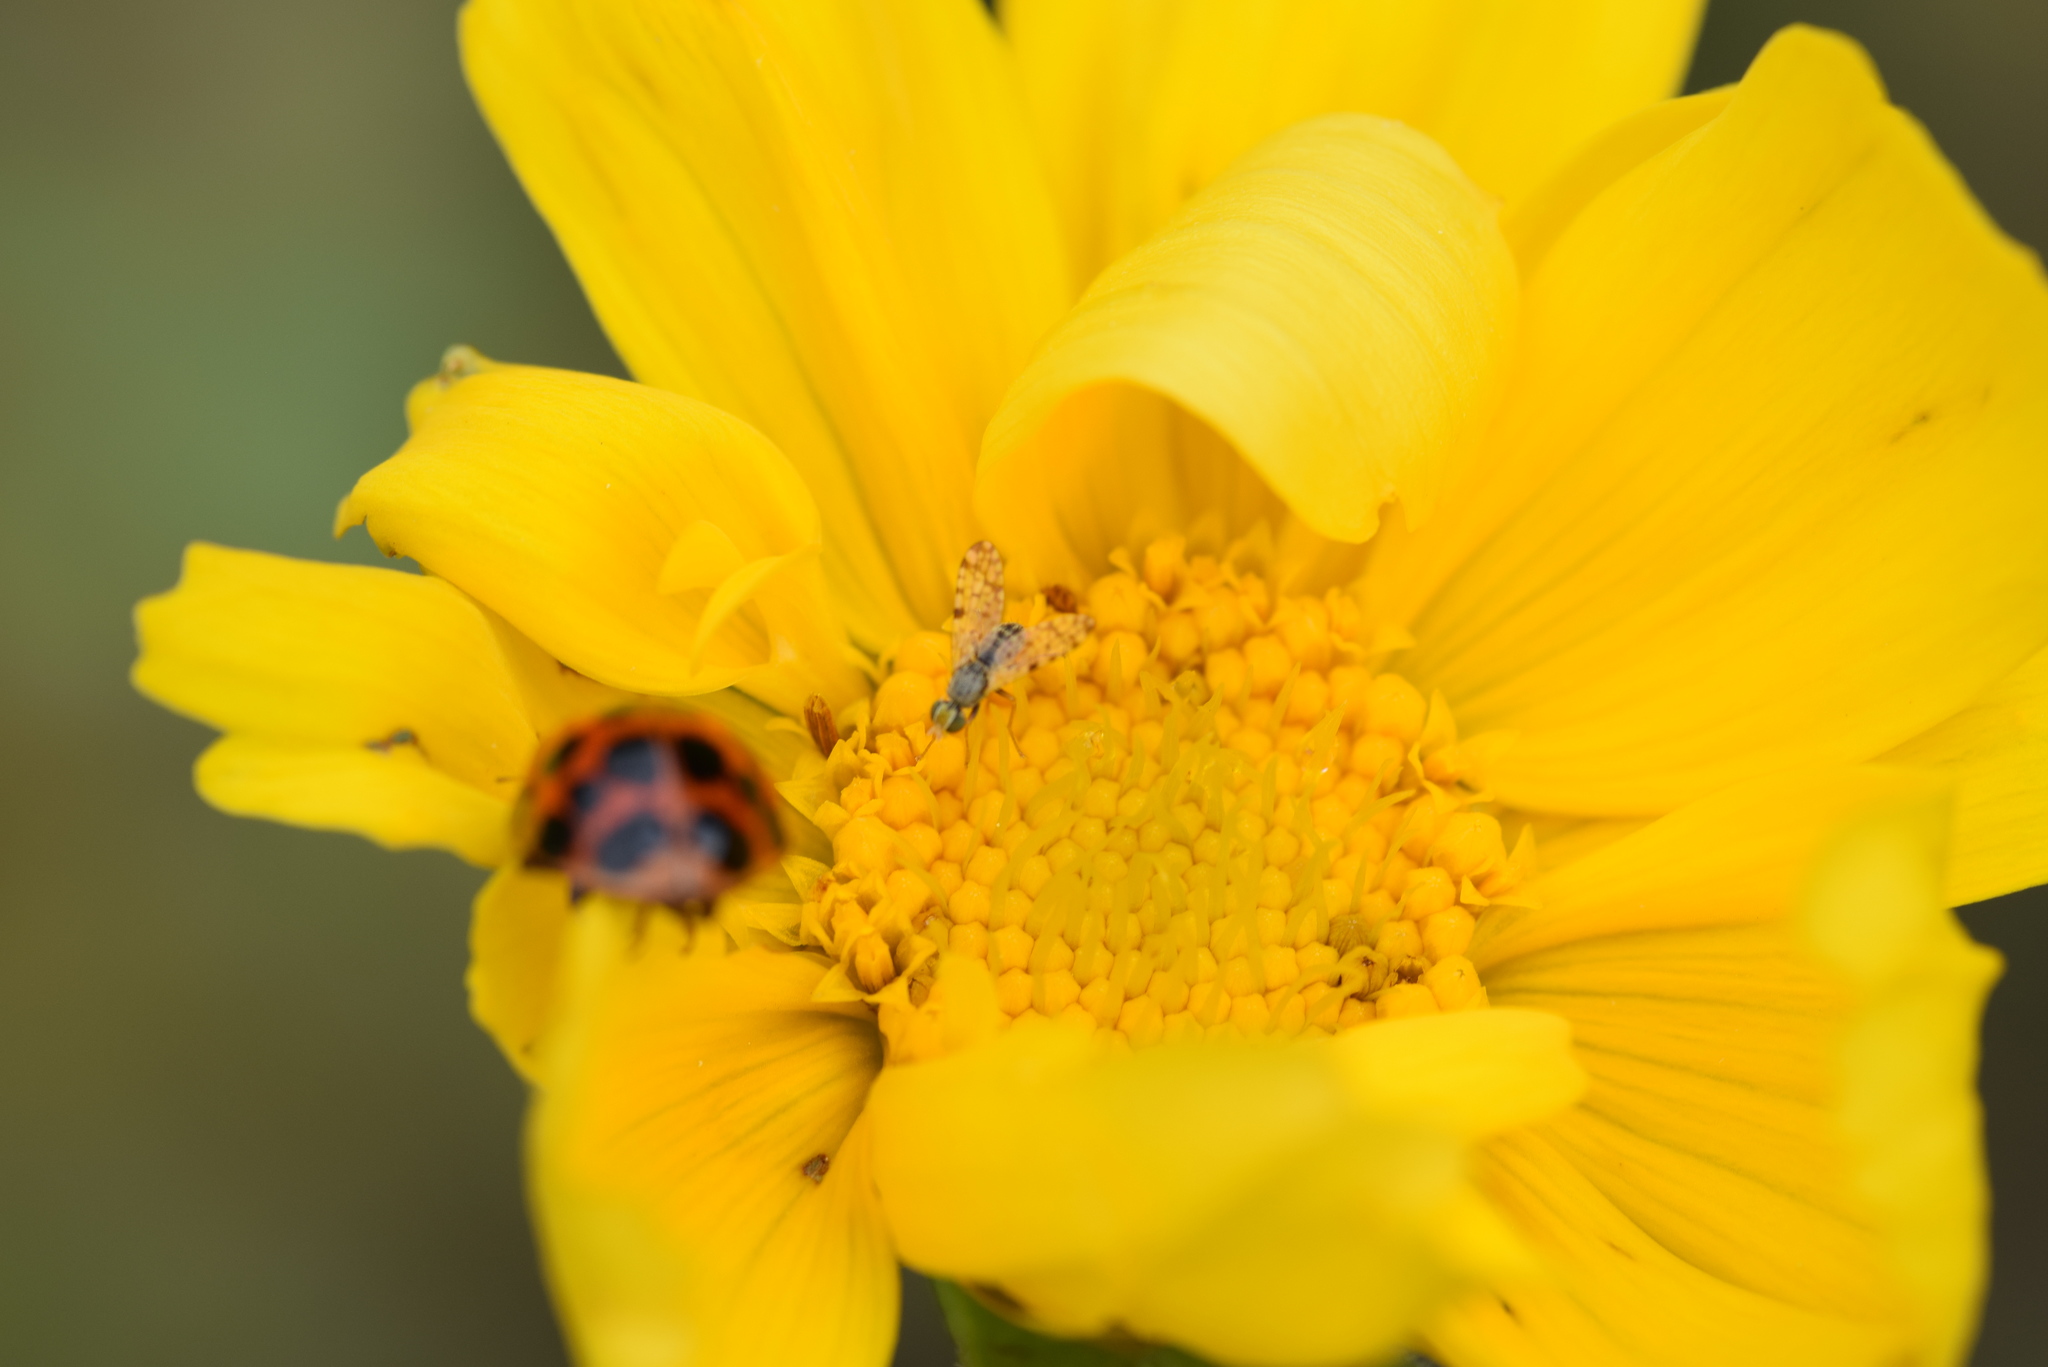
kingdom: Animalia
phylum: Arthropoda
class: Insecta
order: Diptera
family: Tephritidae
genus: Dioxyna
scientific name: Dioxyna picciola
